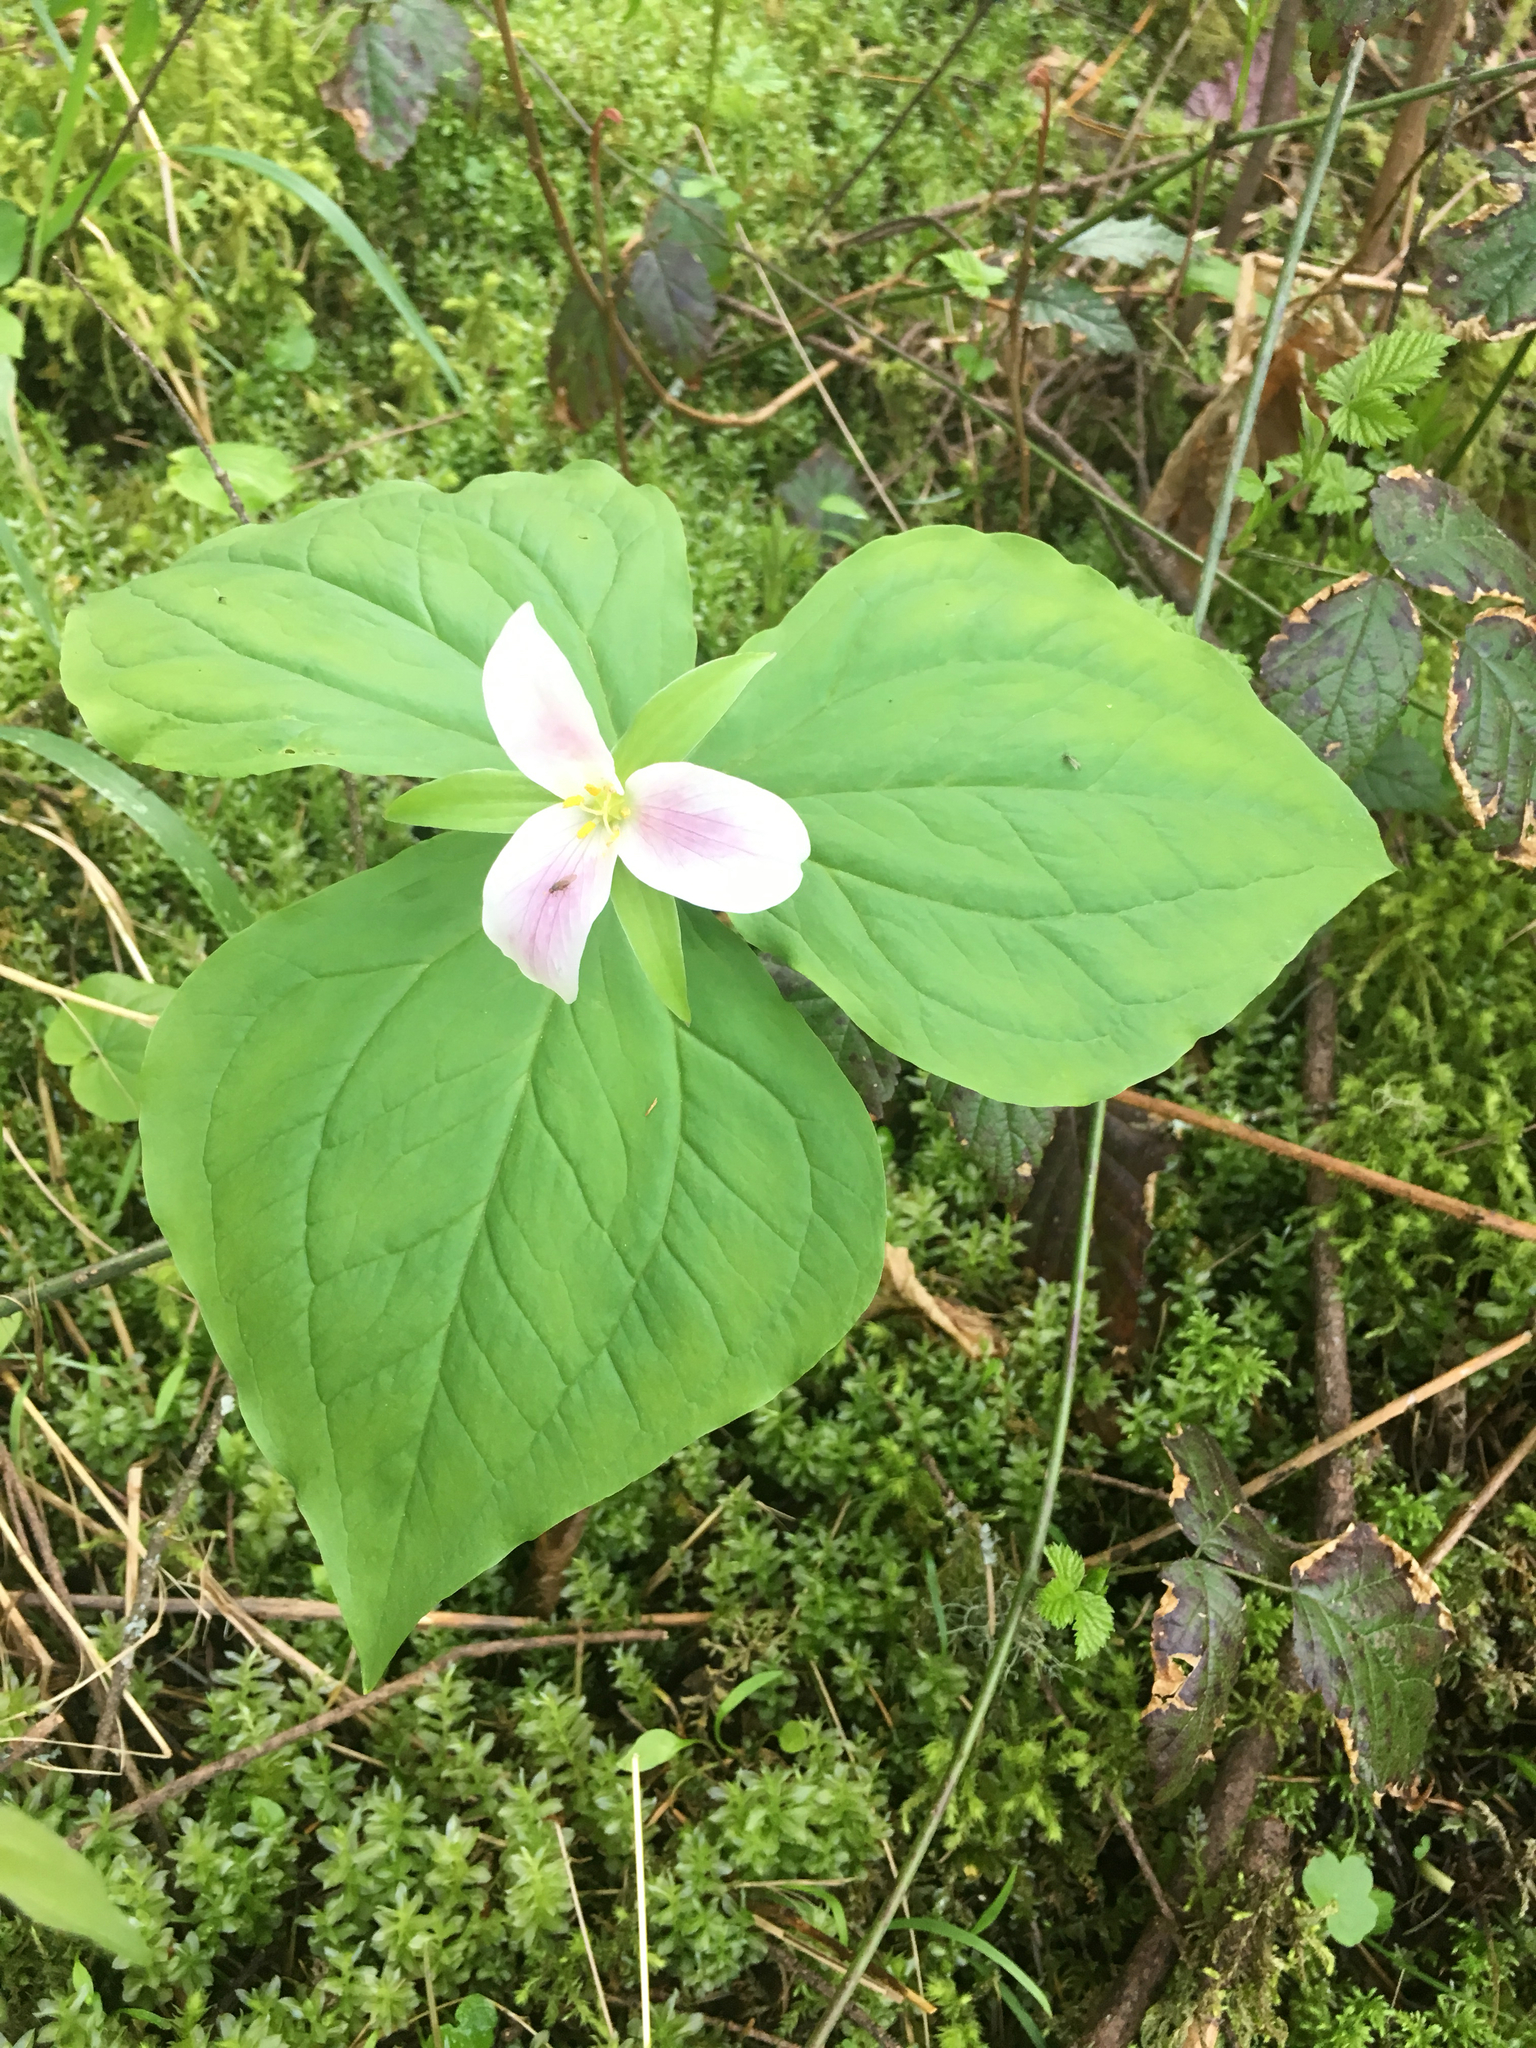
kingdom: Plantae
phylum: Tracheophyta
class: Liliopsida
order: Liliales
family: Melanthiaceae
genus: Trillium
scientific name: Trillium ovatum
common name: Pacific trillium
